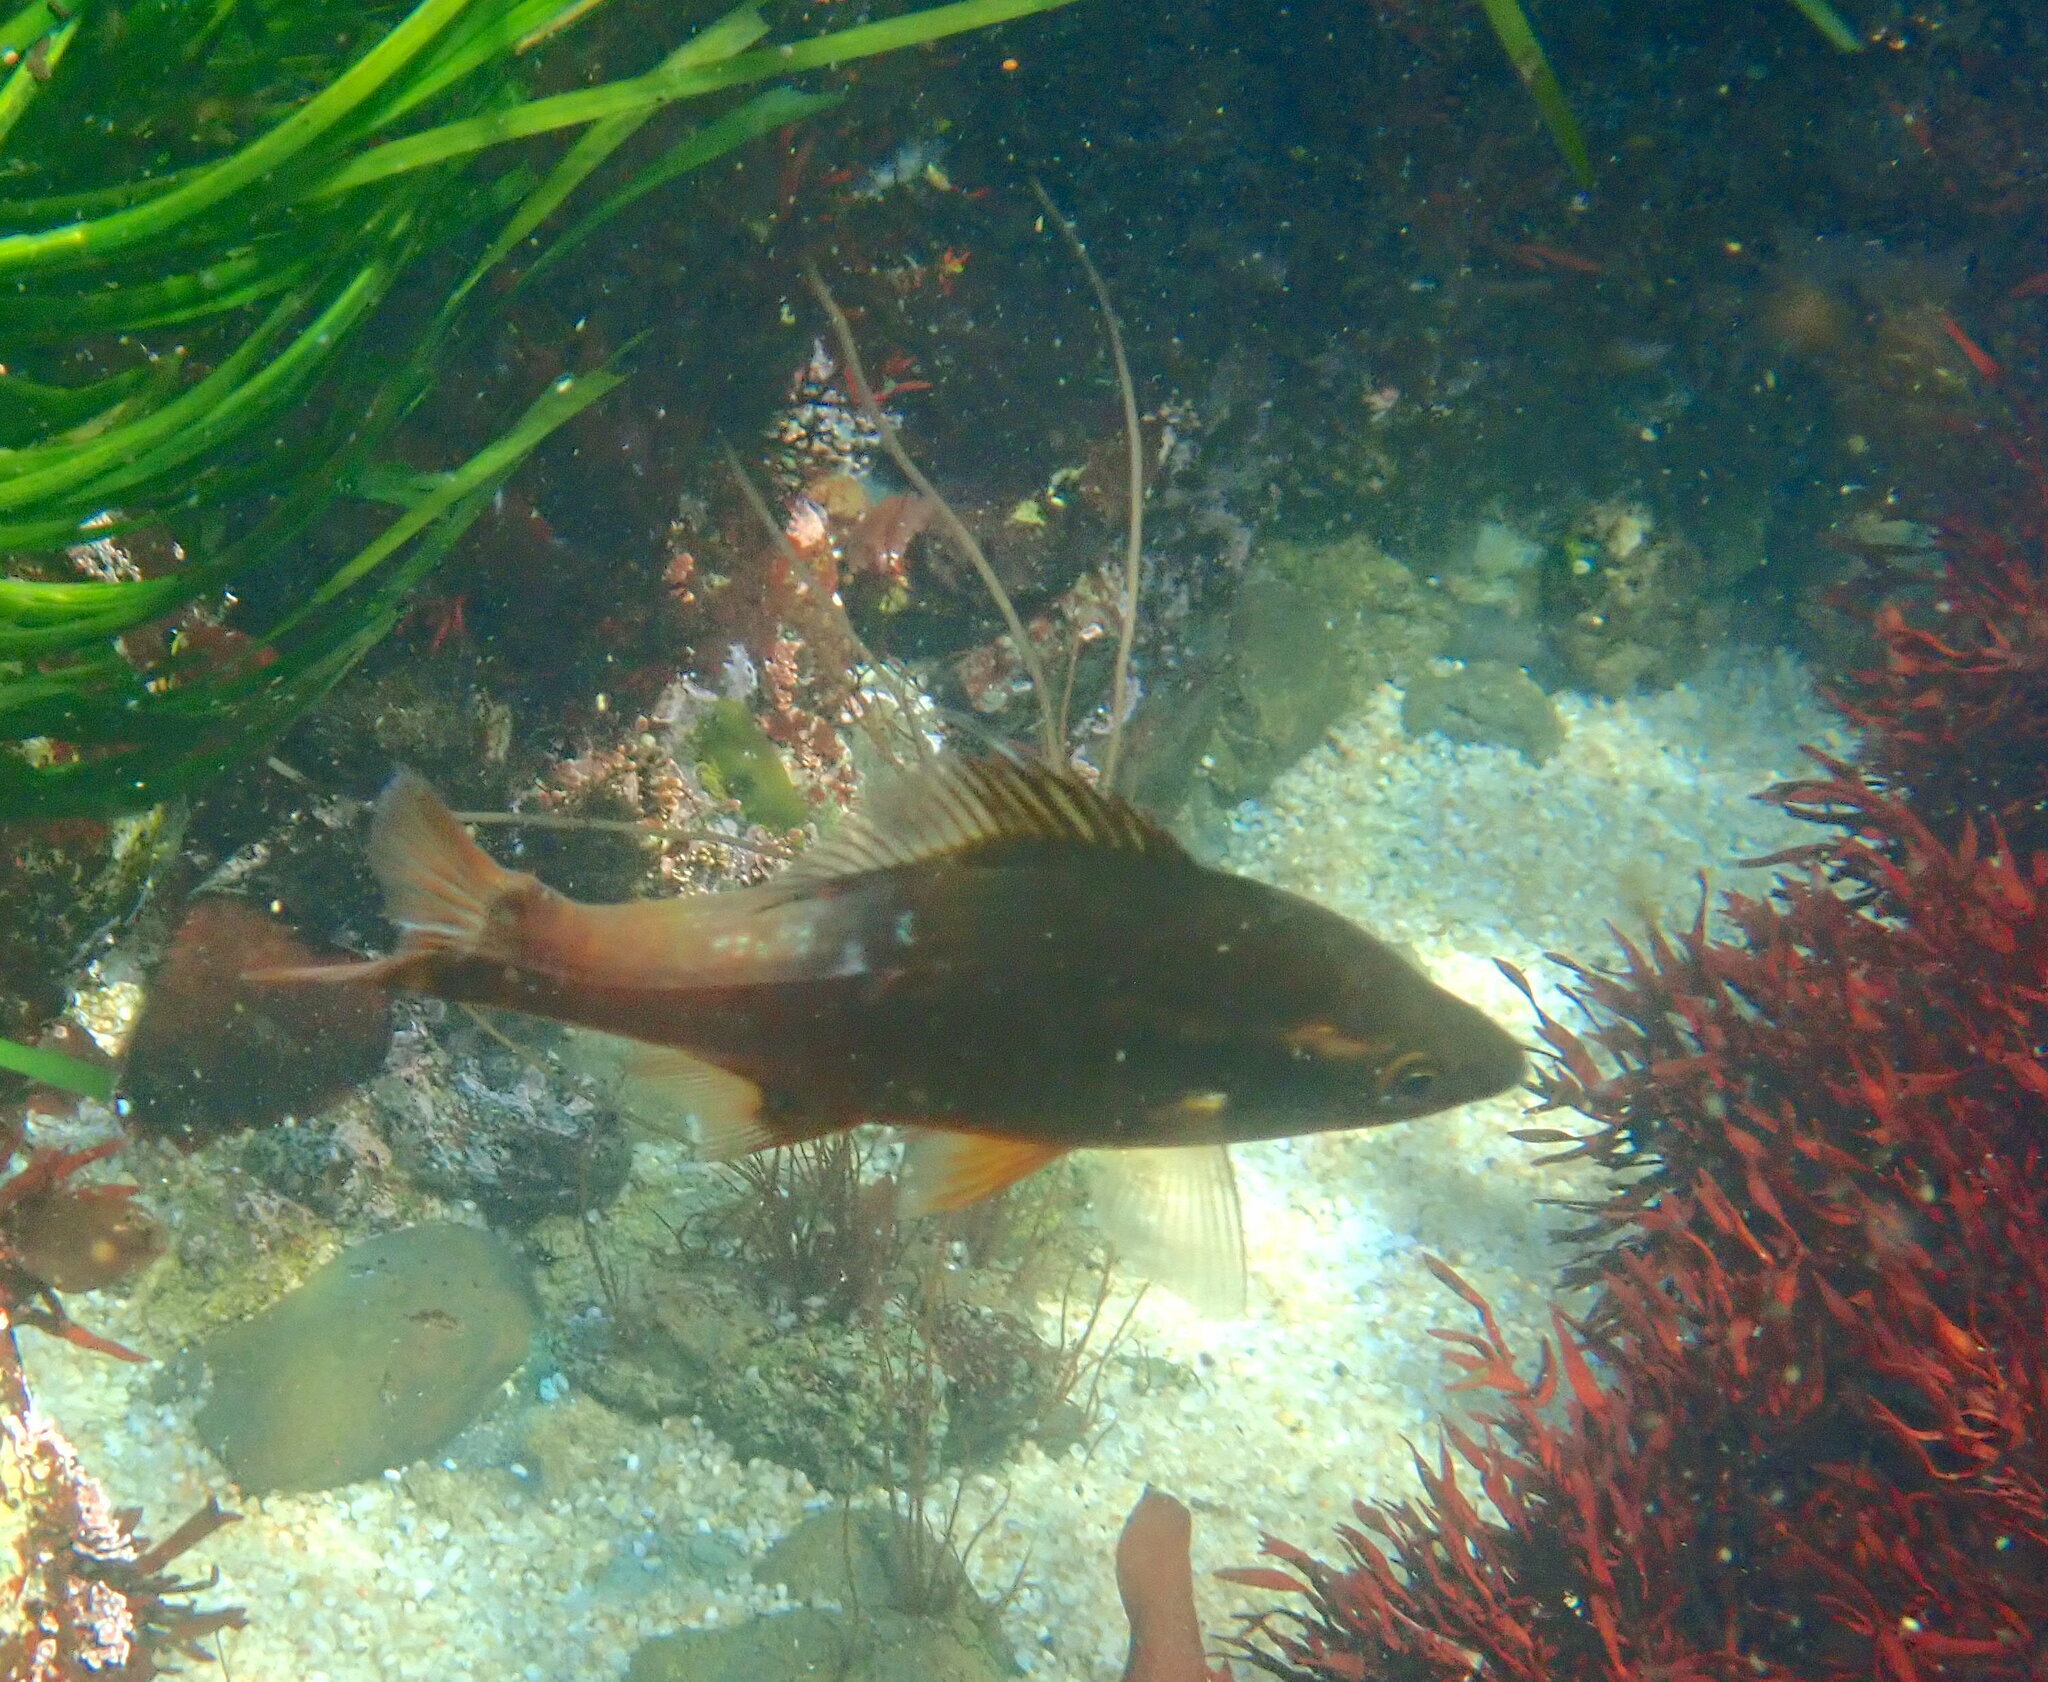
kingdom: Animalia
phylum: Chordata
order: Perciformes
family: Embiotocidae
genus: Brachyistius
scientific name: Brachyistius frenatus
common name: Kelp perch
